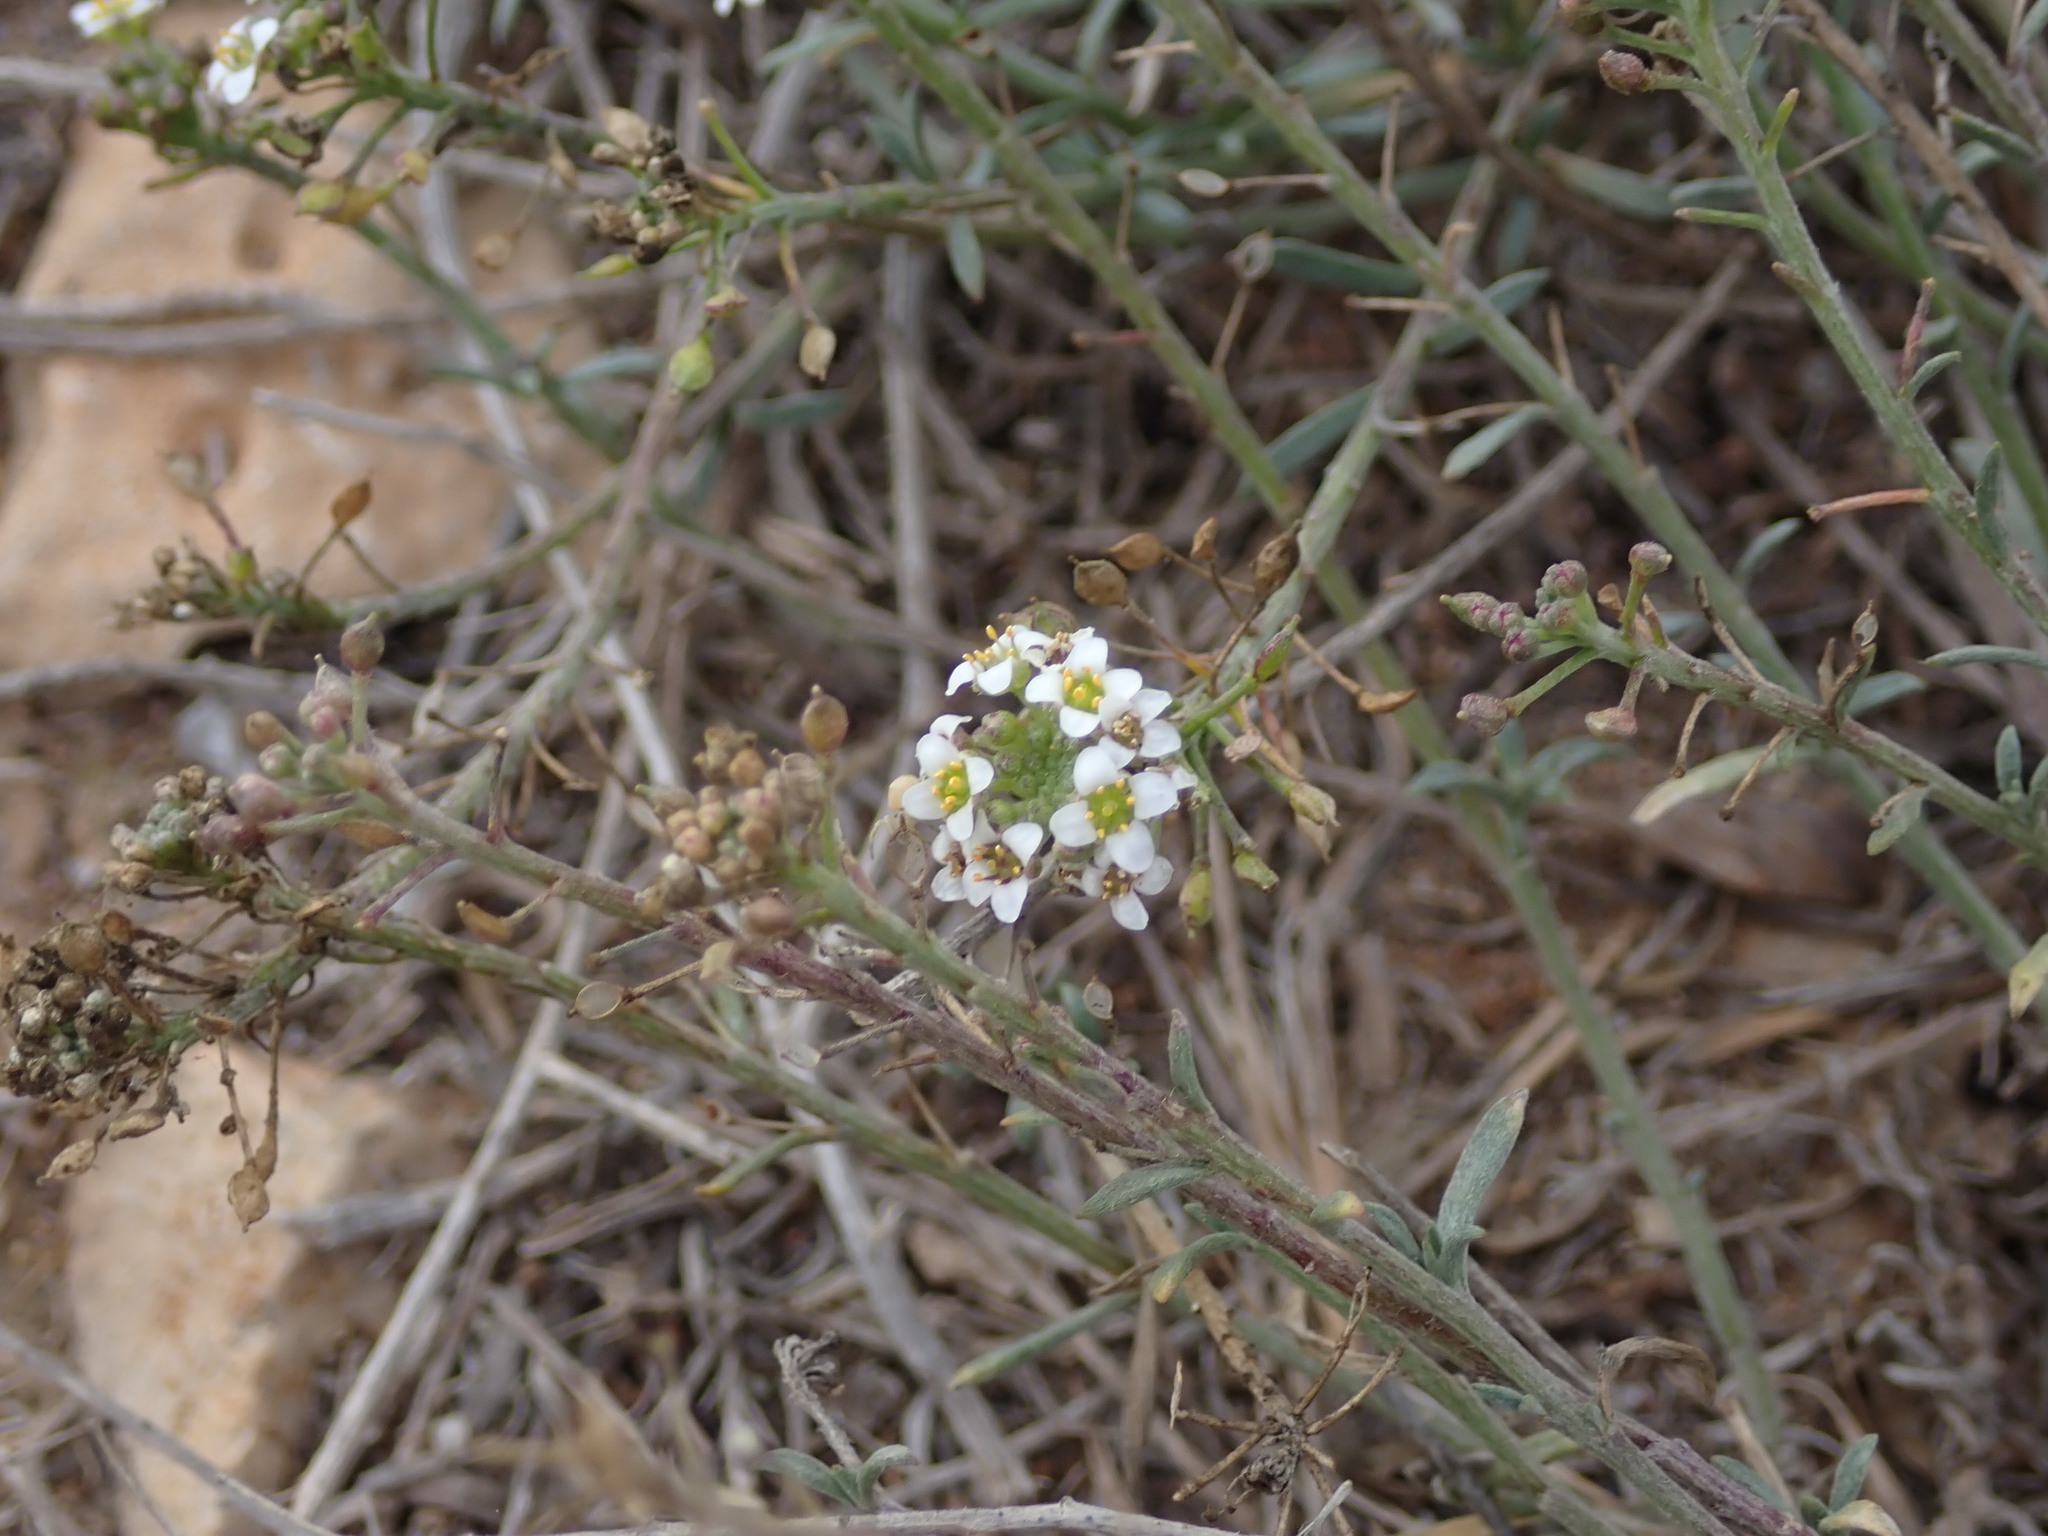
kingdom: Plantae
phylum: Tracheophyta
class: Magnoliopsida
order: Brassicales
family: Brassicaceae
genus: Lobularia
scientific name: Lobularia maritima
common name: Sweet alison
